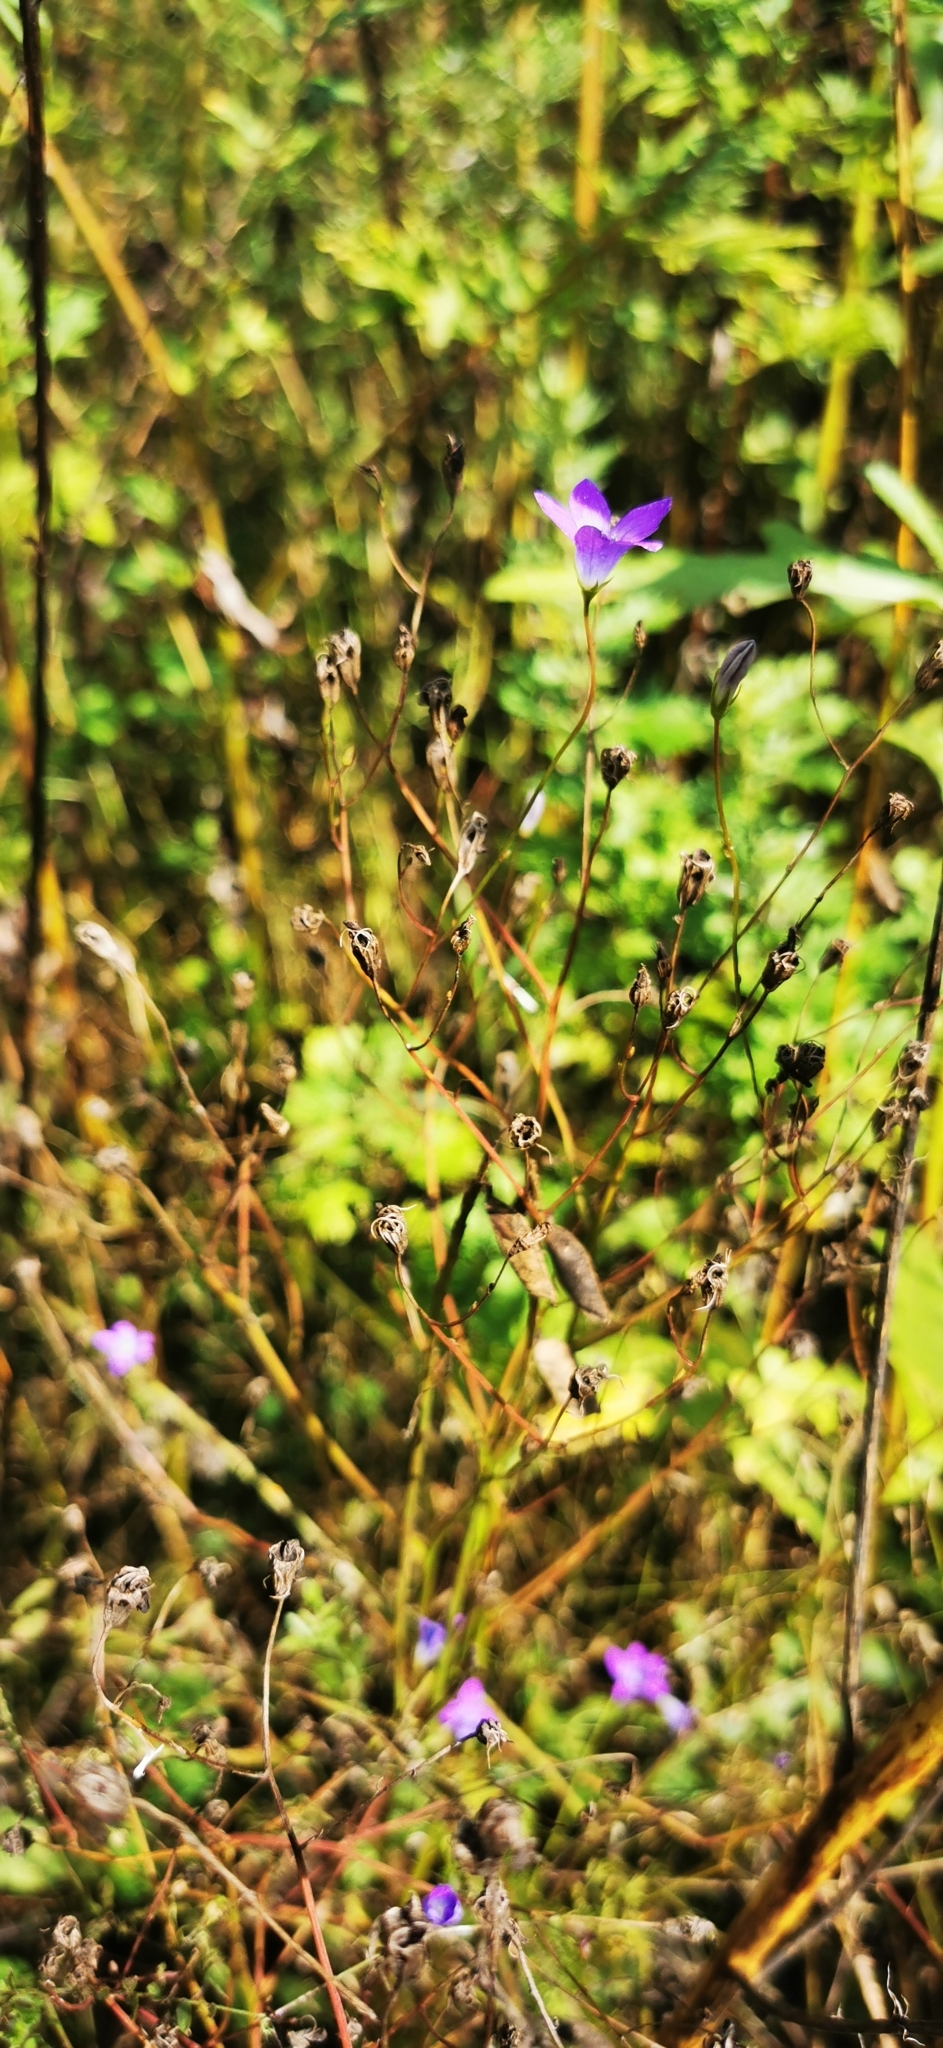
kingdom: Plantae
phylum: Tracheophyta
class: Magnoliopsida
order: Asterales
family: Campanulaceae
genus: Campanula
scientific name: Campanula patula
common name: Spreading bellflower
